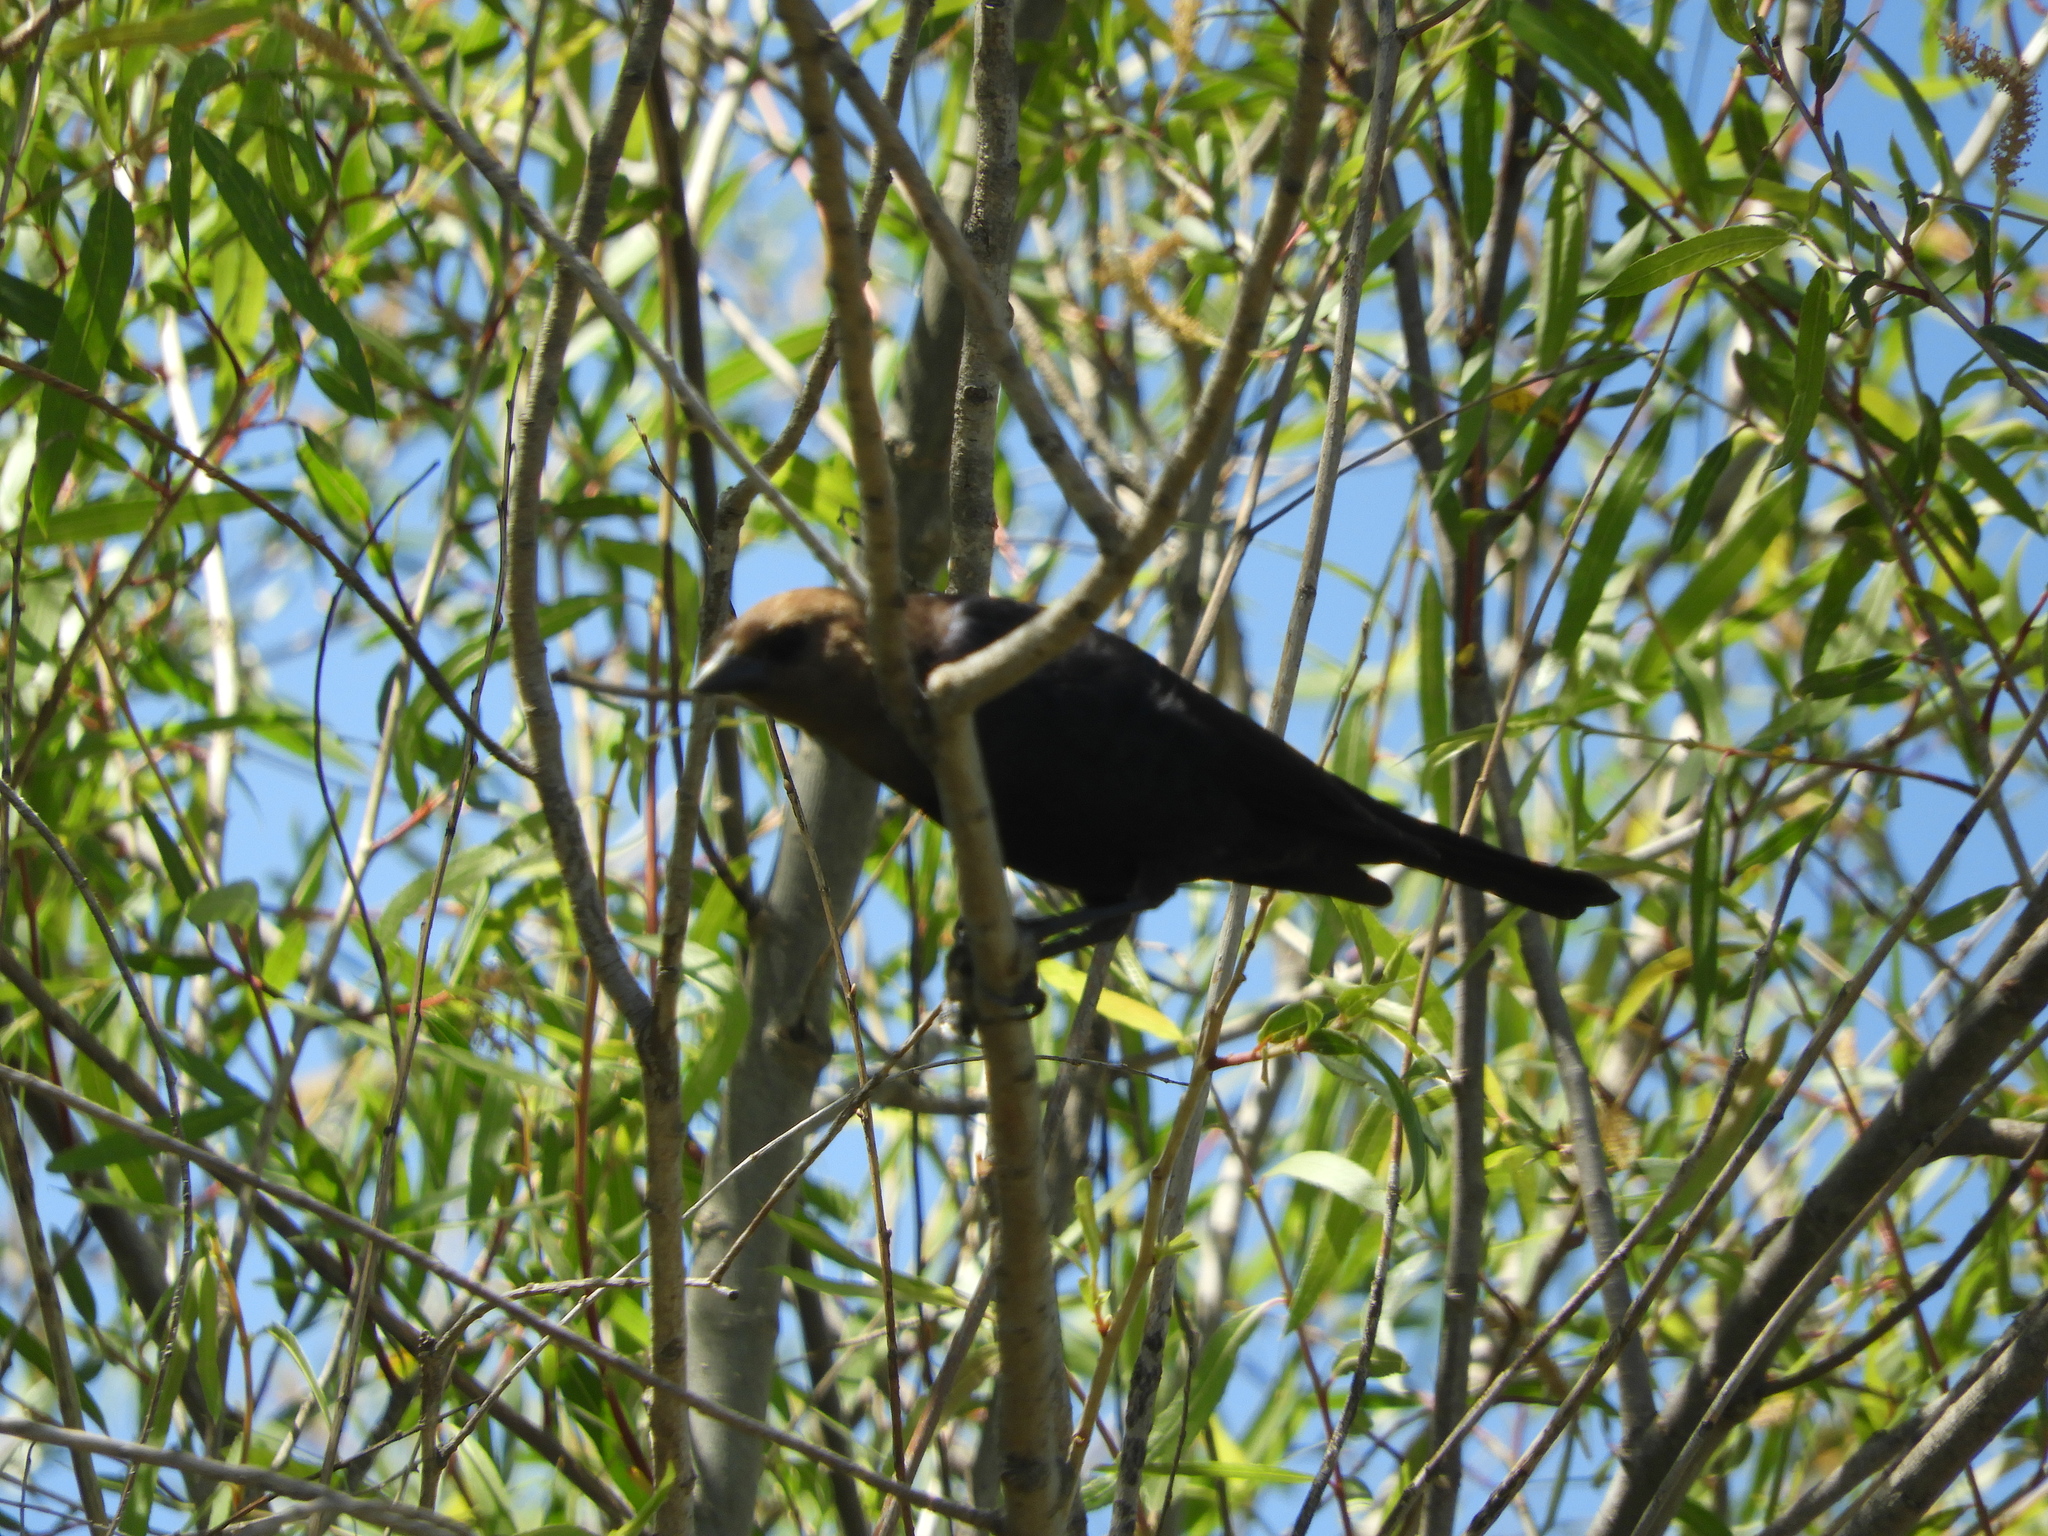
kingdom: Animalia
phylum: Chordata
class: Aves
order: Passeriformes
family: Icteridae
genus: Molothrus
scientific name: Molothrus ater
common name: Brown-headed cowbird
